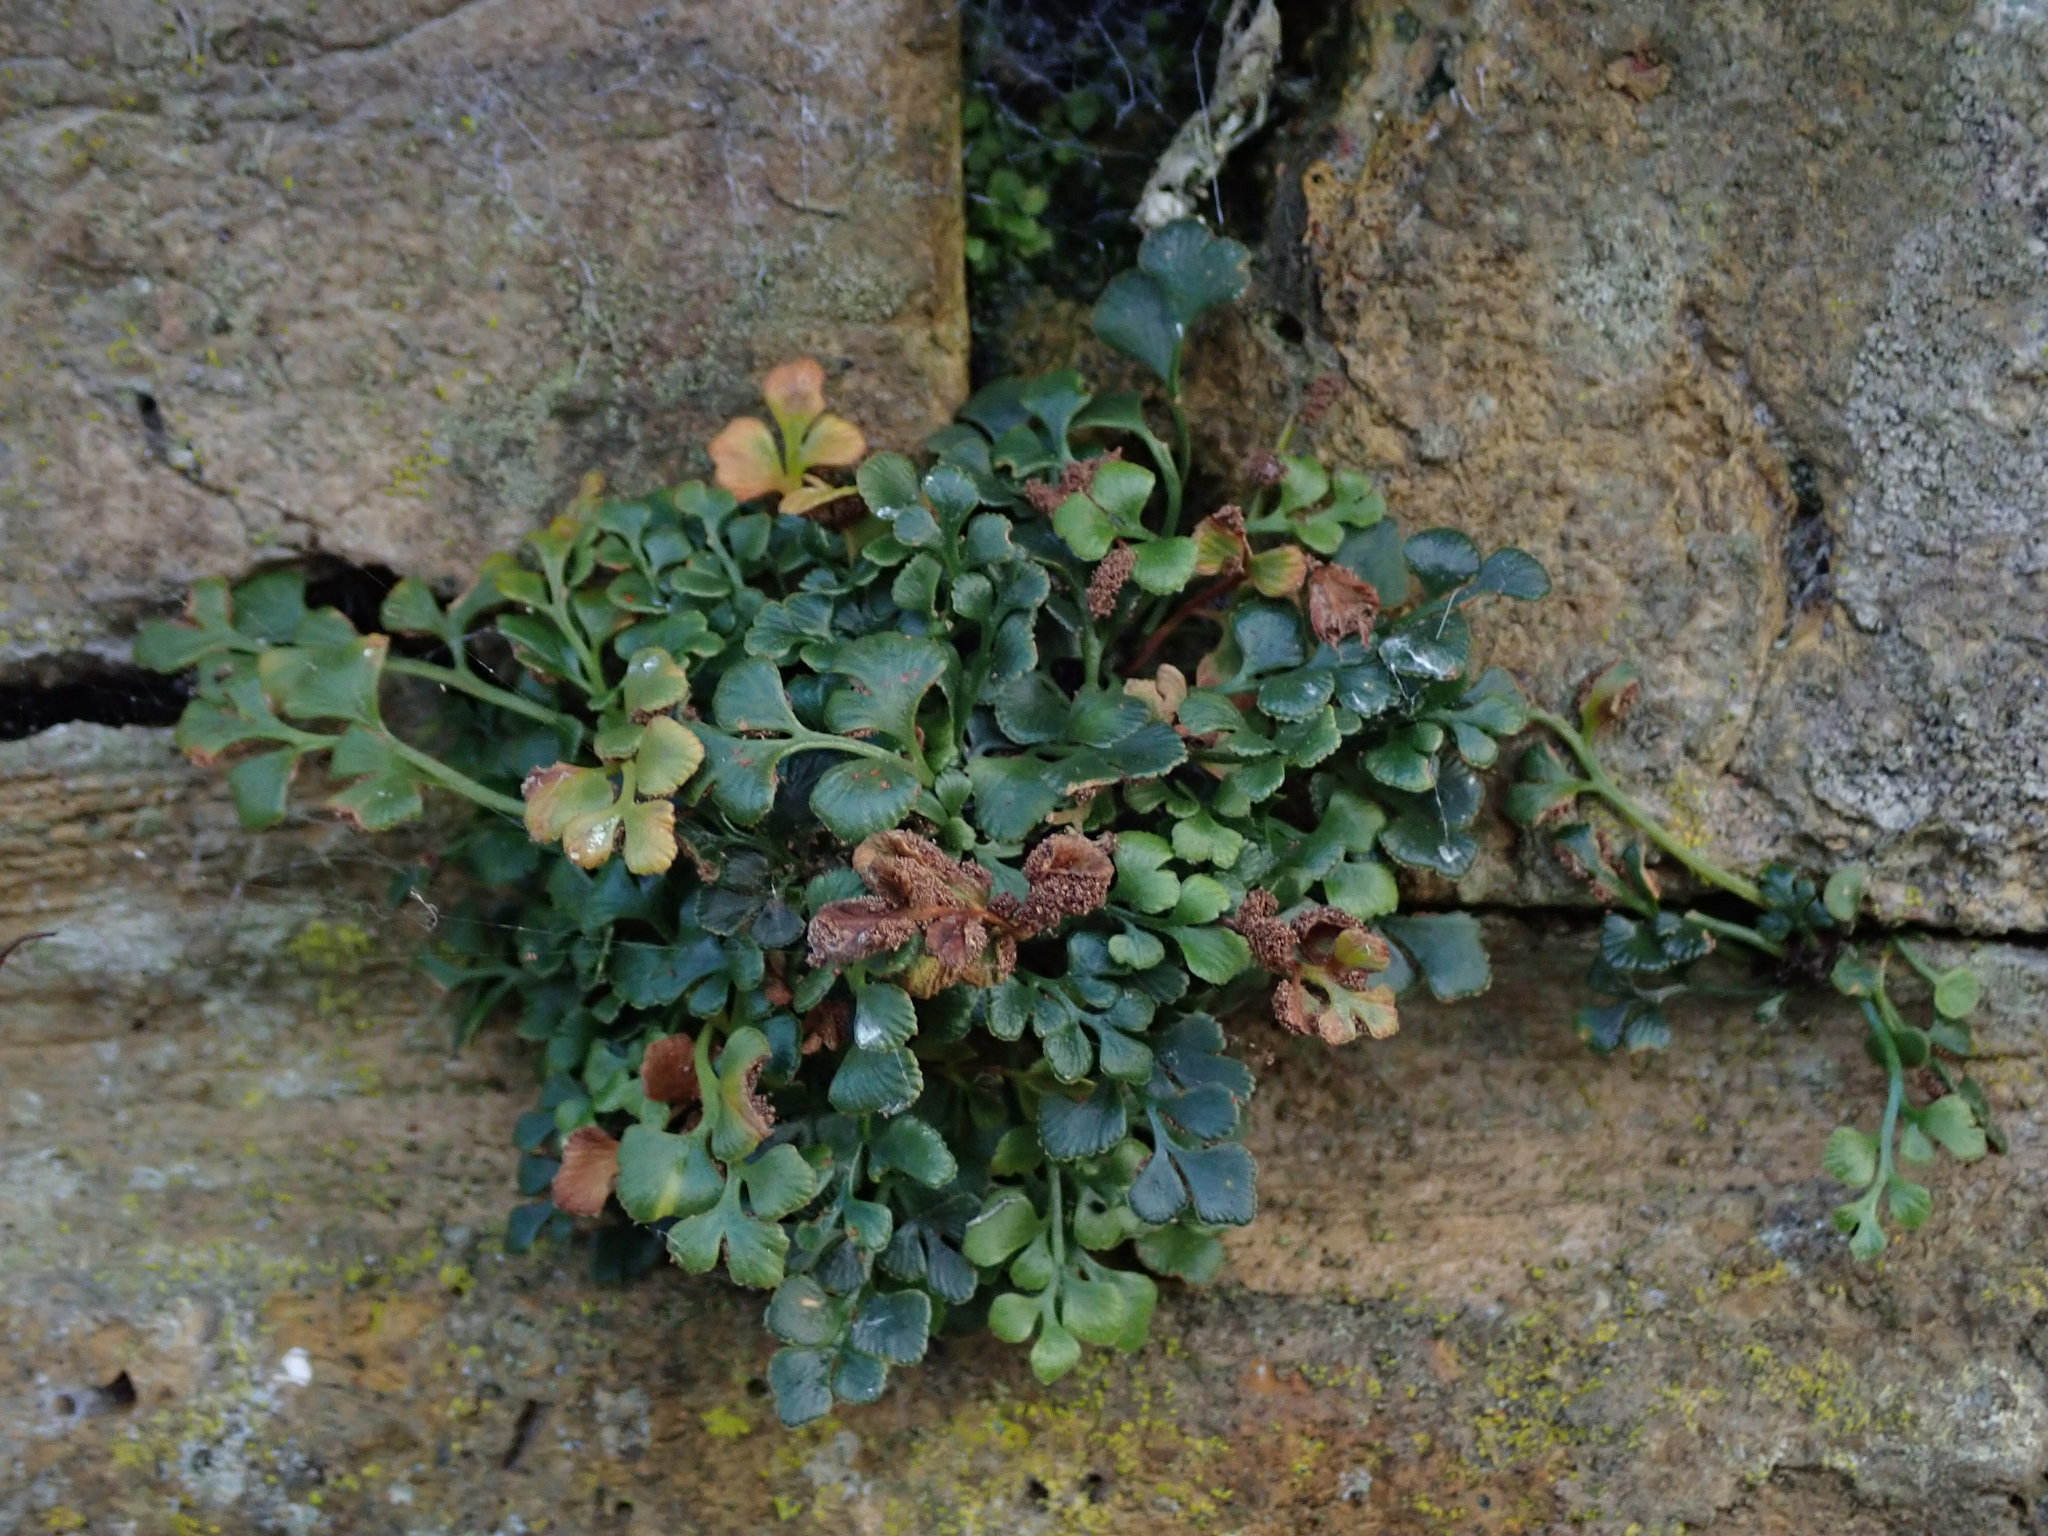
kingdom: Plantae
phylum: Tracheophyta
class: Polypodiopsida
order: Polypodiales
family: Aspleniaceae
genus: Asplenium
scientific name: Asplenium ruta-muraria
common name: Wall-rue
